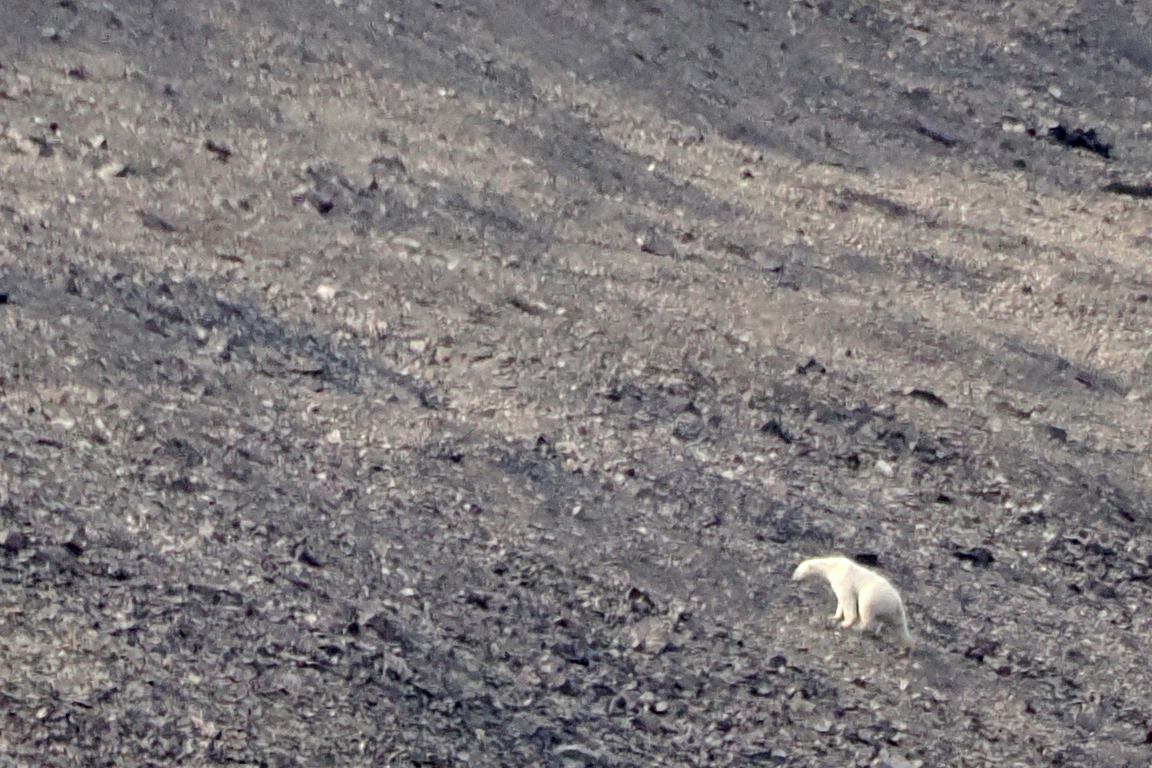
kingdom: Animalia
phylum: Chordata
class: Mammalia
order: Carnivora
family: Ursidae
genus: Ursus
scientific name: Ursus maritimus
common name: Polar bear
